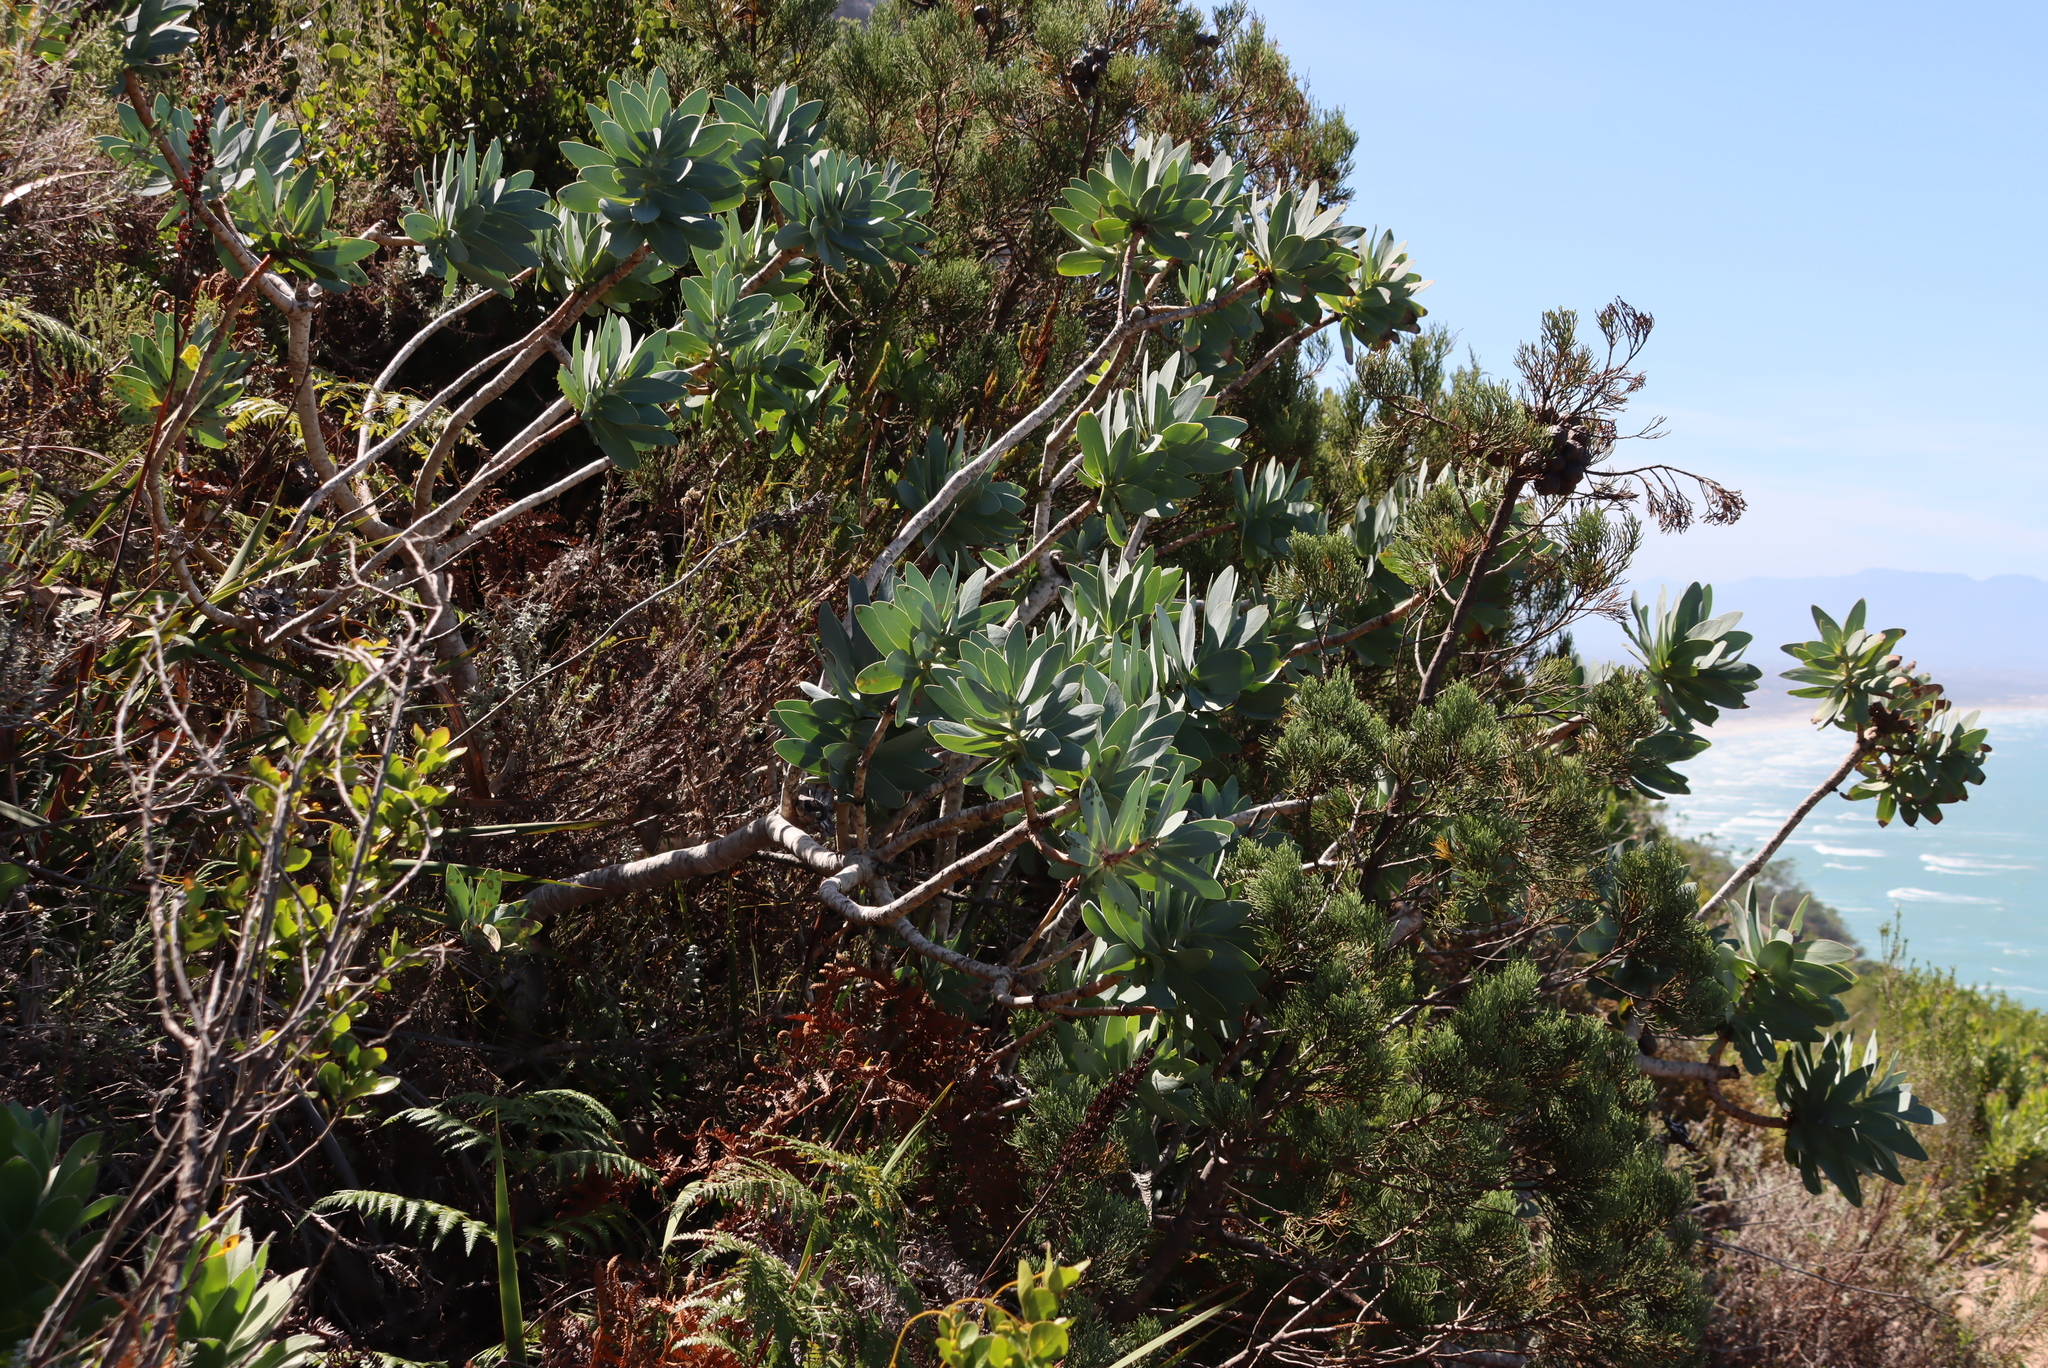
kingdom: Plantae
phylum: Tracheophyta
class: Magnoliopsida
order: Proteales
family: Proteaceae
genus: Protea
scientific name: Protea nitida
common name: Tree protea
